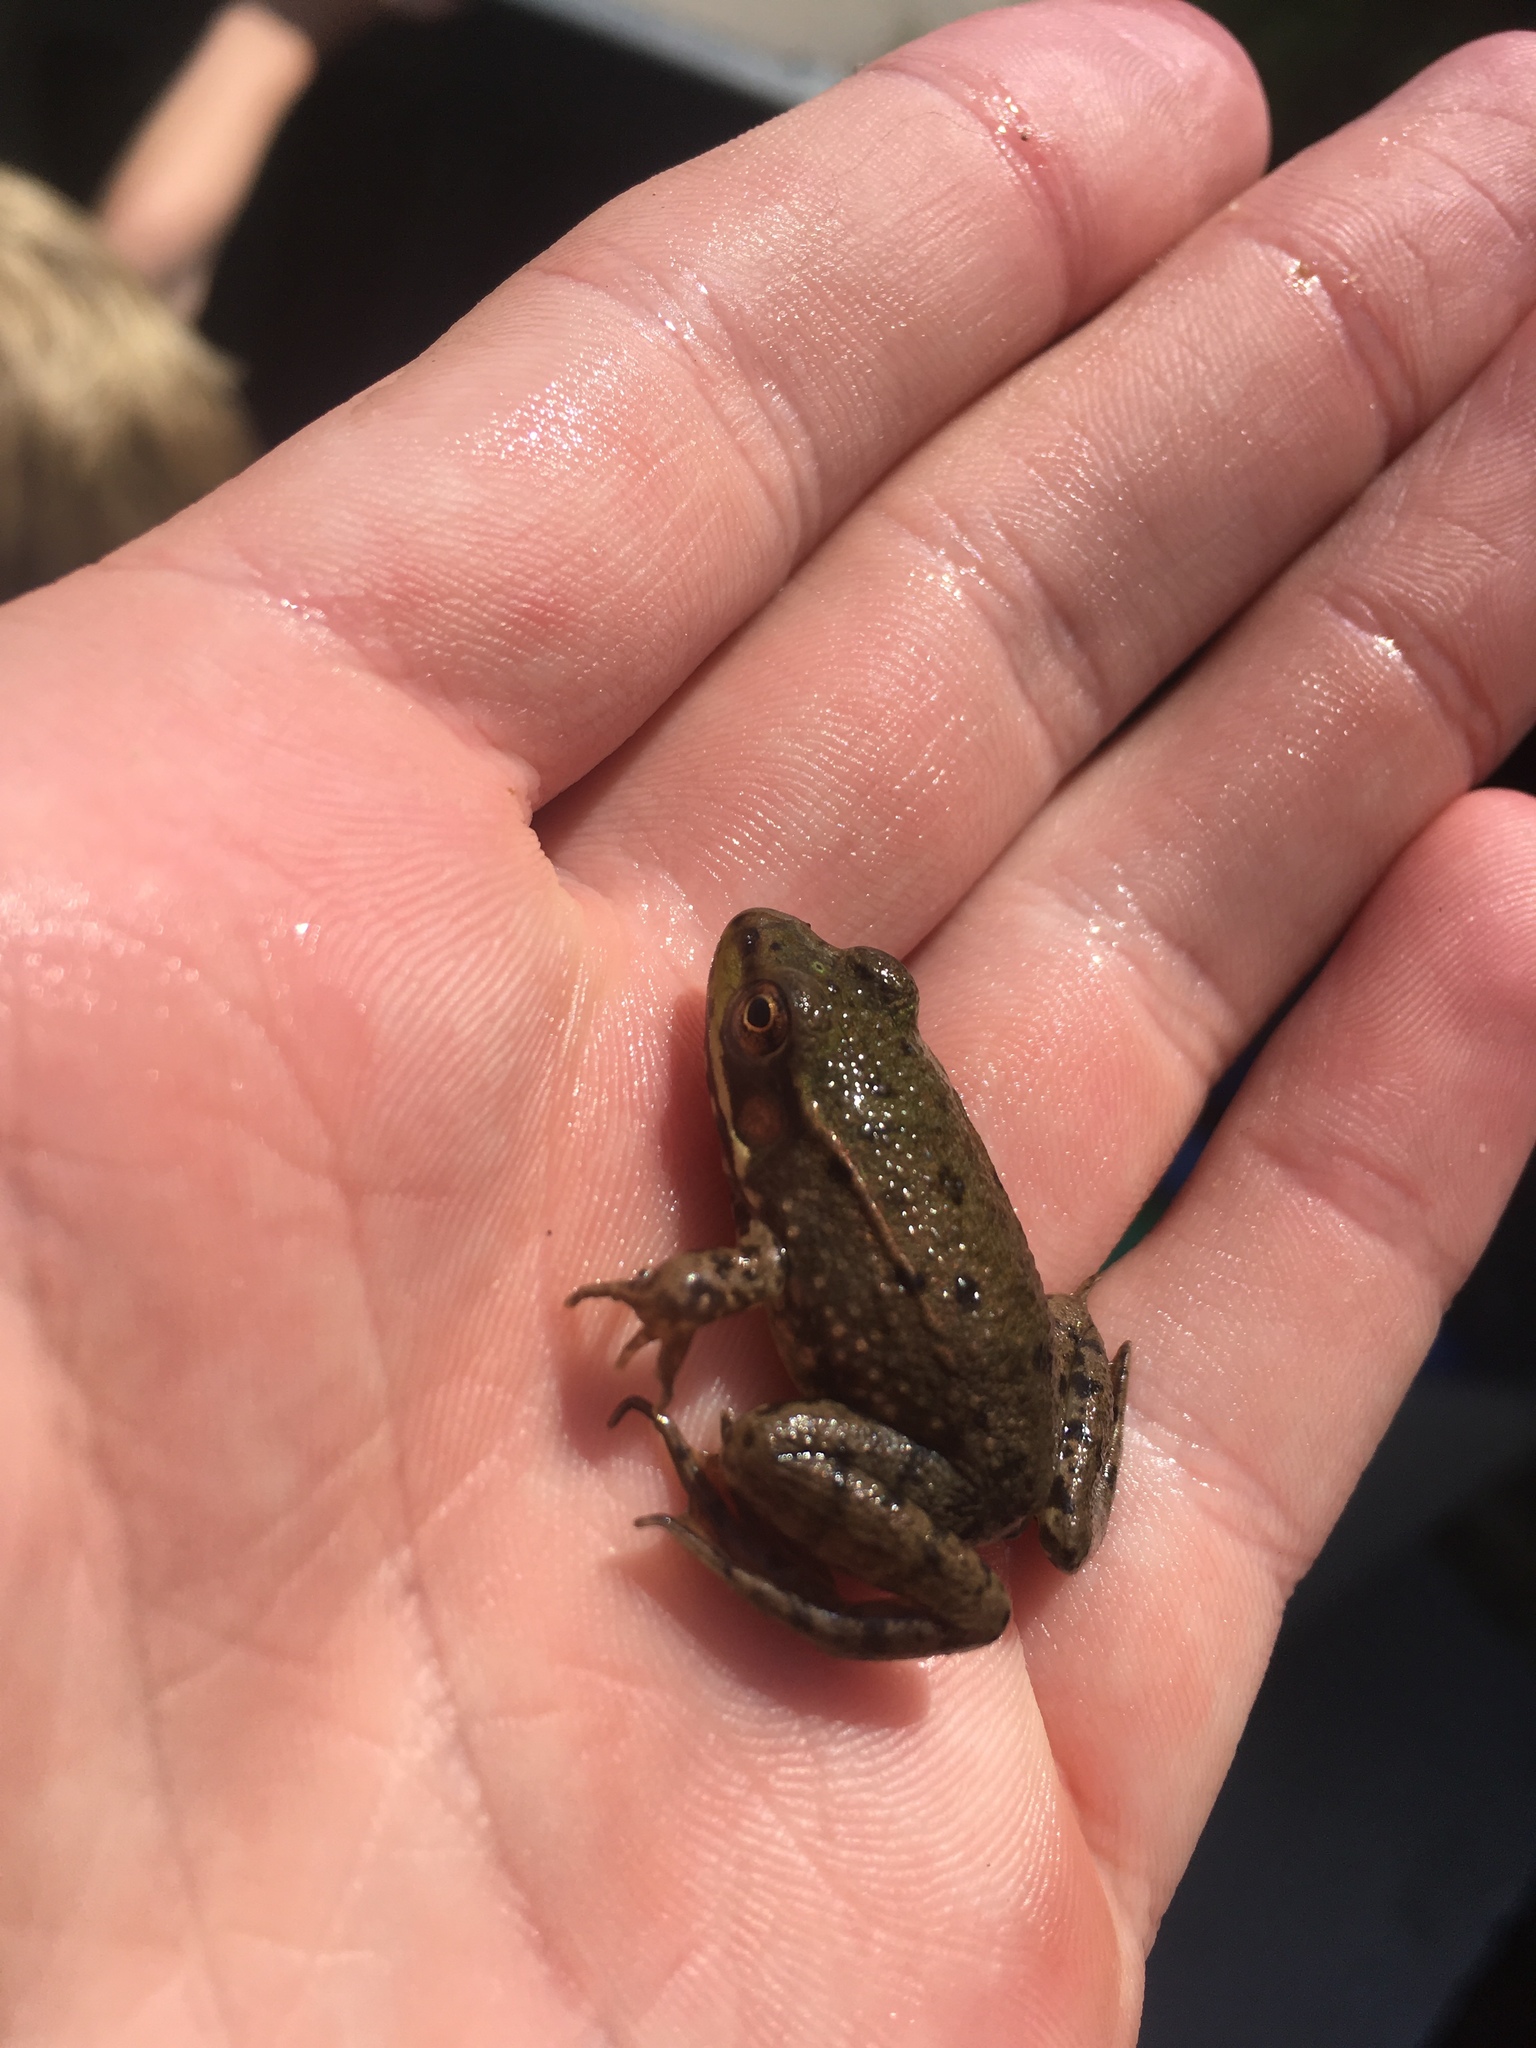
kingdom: Animalia
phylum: Chordata
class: Amphibia
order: Anura
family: Ranidae
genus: Lithobates
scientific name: Lithobates clamitans
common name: Green frog
